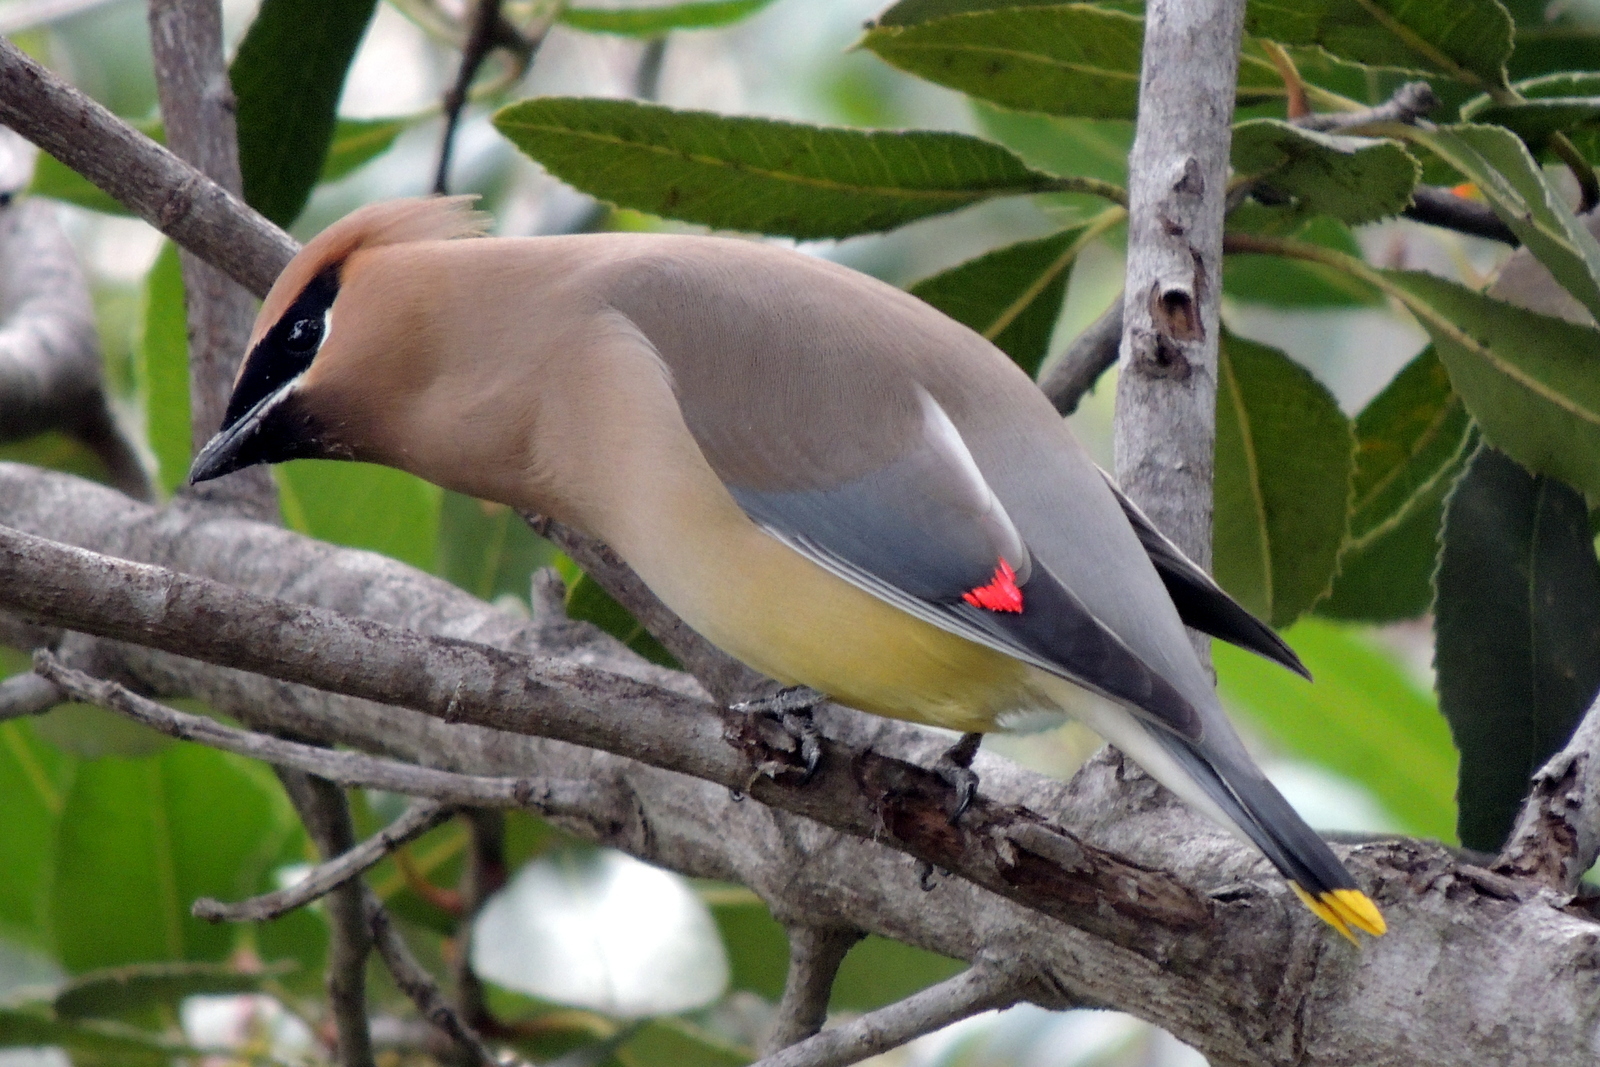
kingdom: Animalia
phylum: Chordata
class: Aves
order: Passeriformes
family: Bombycillidae
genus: Bombycilla
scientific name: Bombycilla cedrorum
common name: Cedar waxwing
